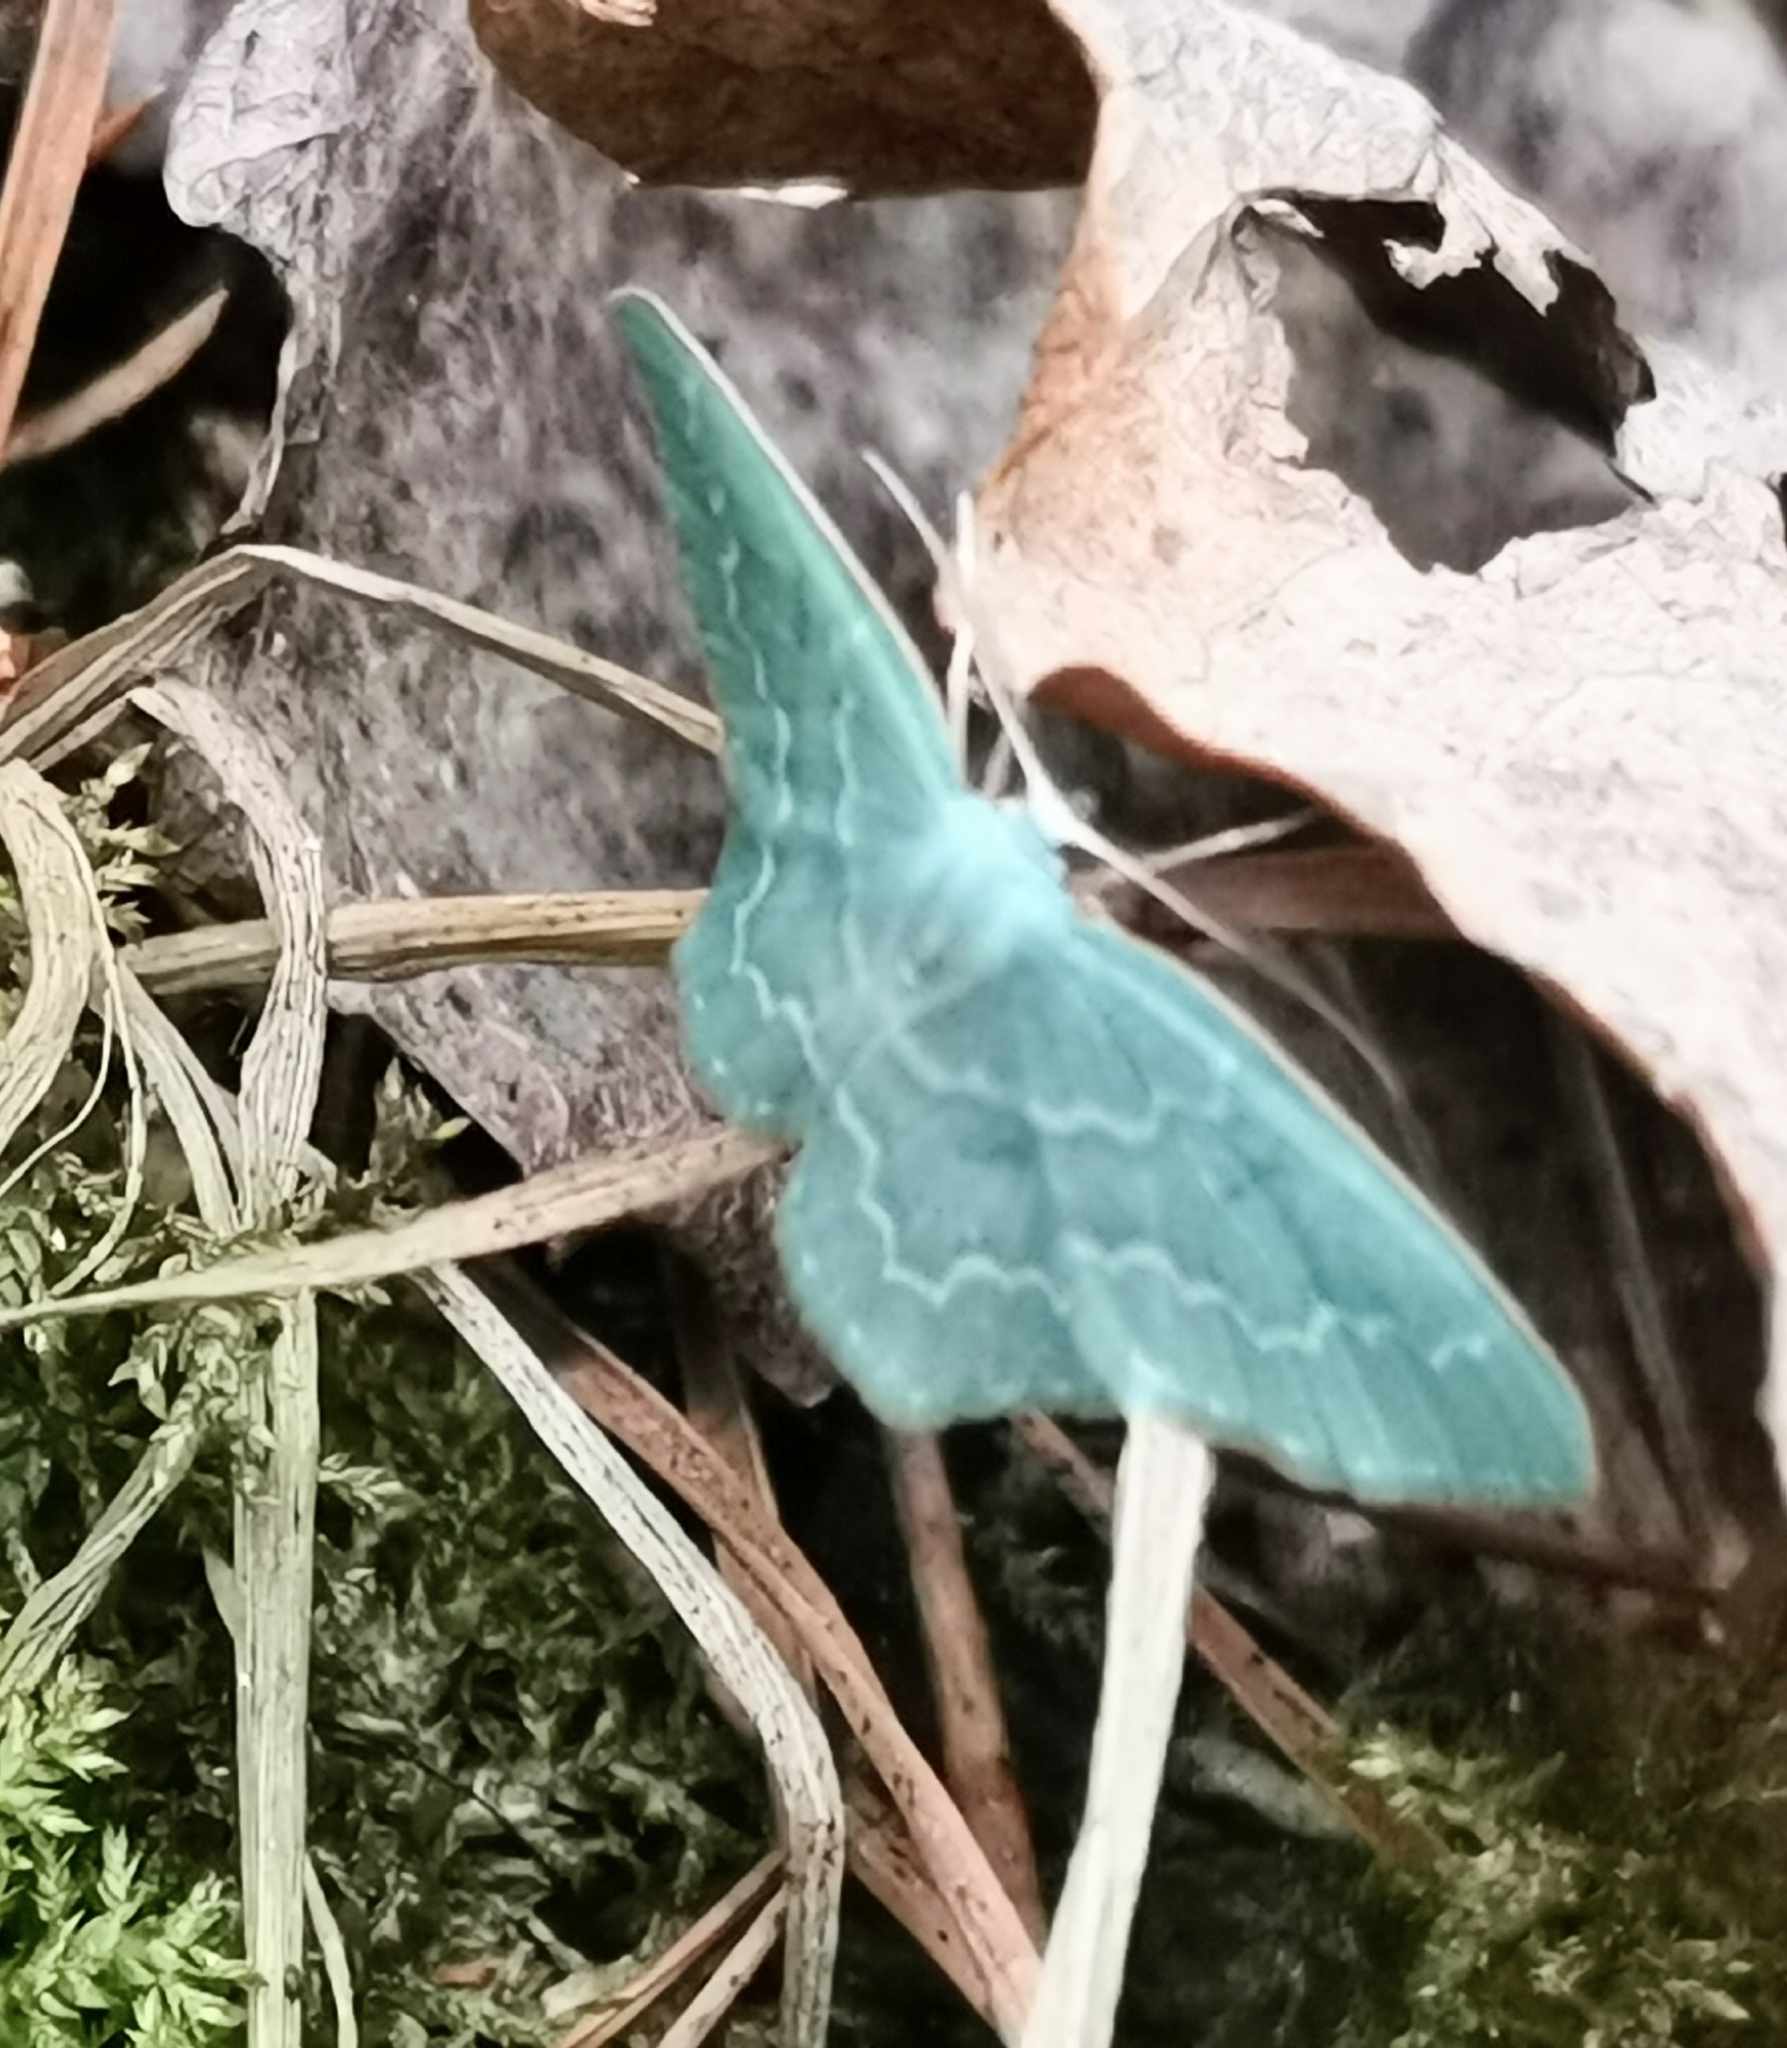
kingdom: Animalia
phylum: Arthropoda
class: Insecta
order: Lepidoptera
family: Geometridae
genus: Jodis
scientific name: Jodis putata
